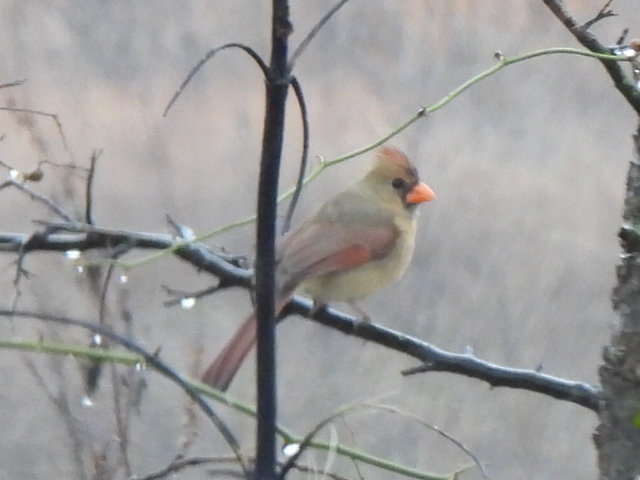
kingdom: Animalia
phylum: Chordata
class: Aves
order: Passeriformes
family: Cardinalidae
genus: Cardinalis
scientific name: Cardinalis cardinalis
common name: Northern cardinal
